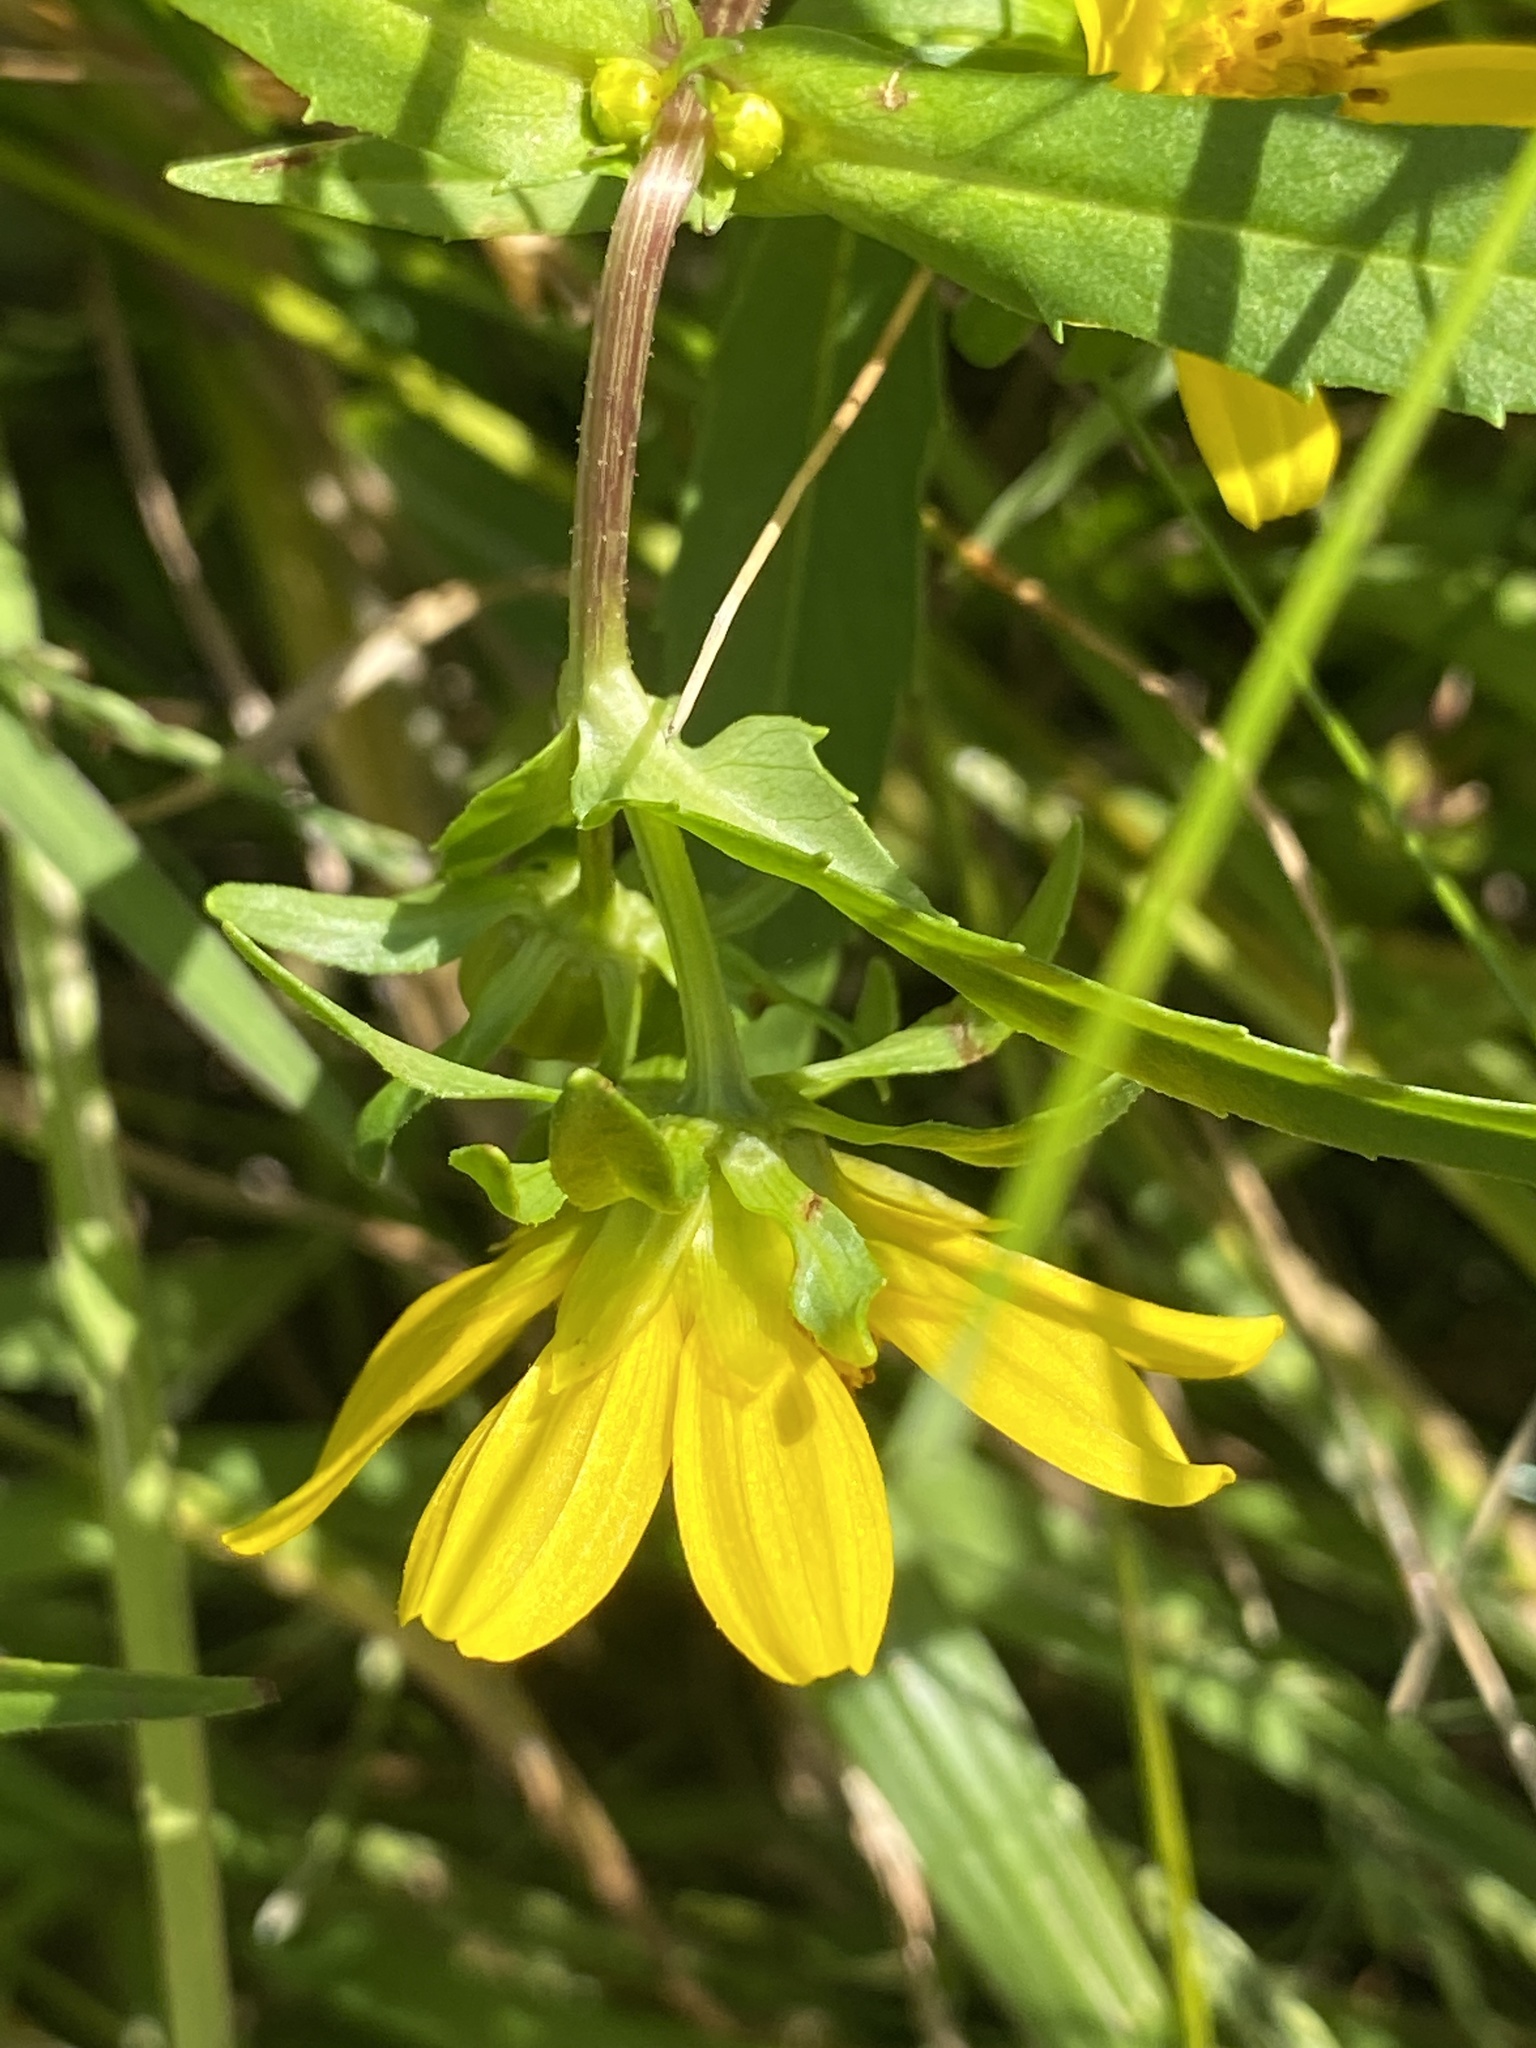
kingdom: Plantae
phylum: Tracheophyta
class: Magnoliopsida
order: Asterales
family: Asteraceae
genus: Bidens
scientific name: Bidens cernua
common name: Nodding bur-marigold
